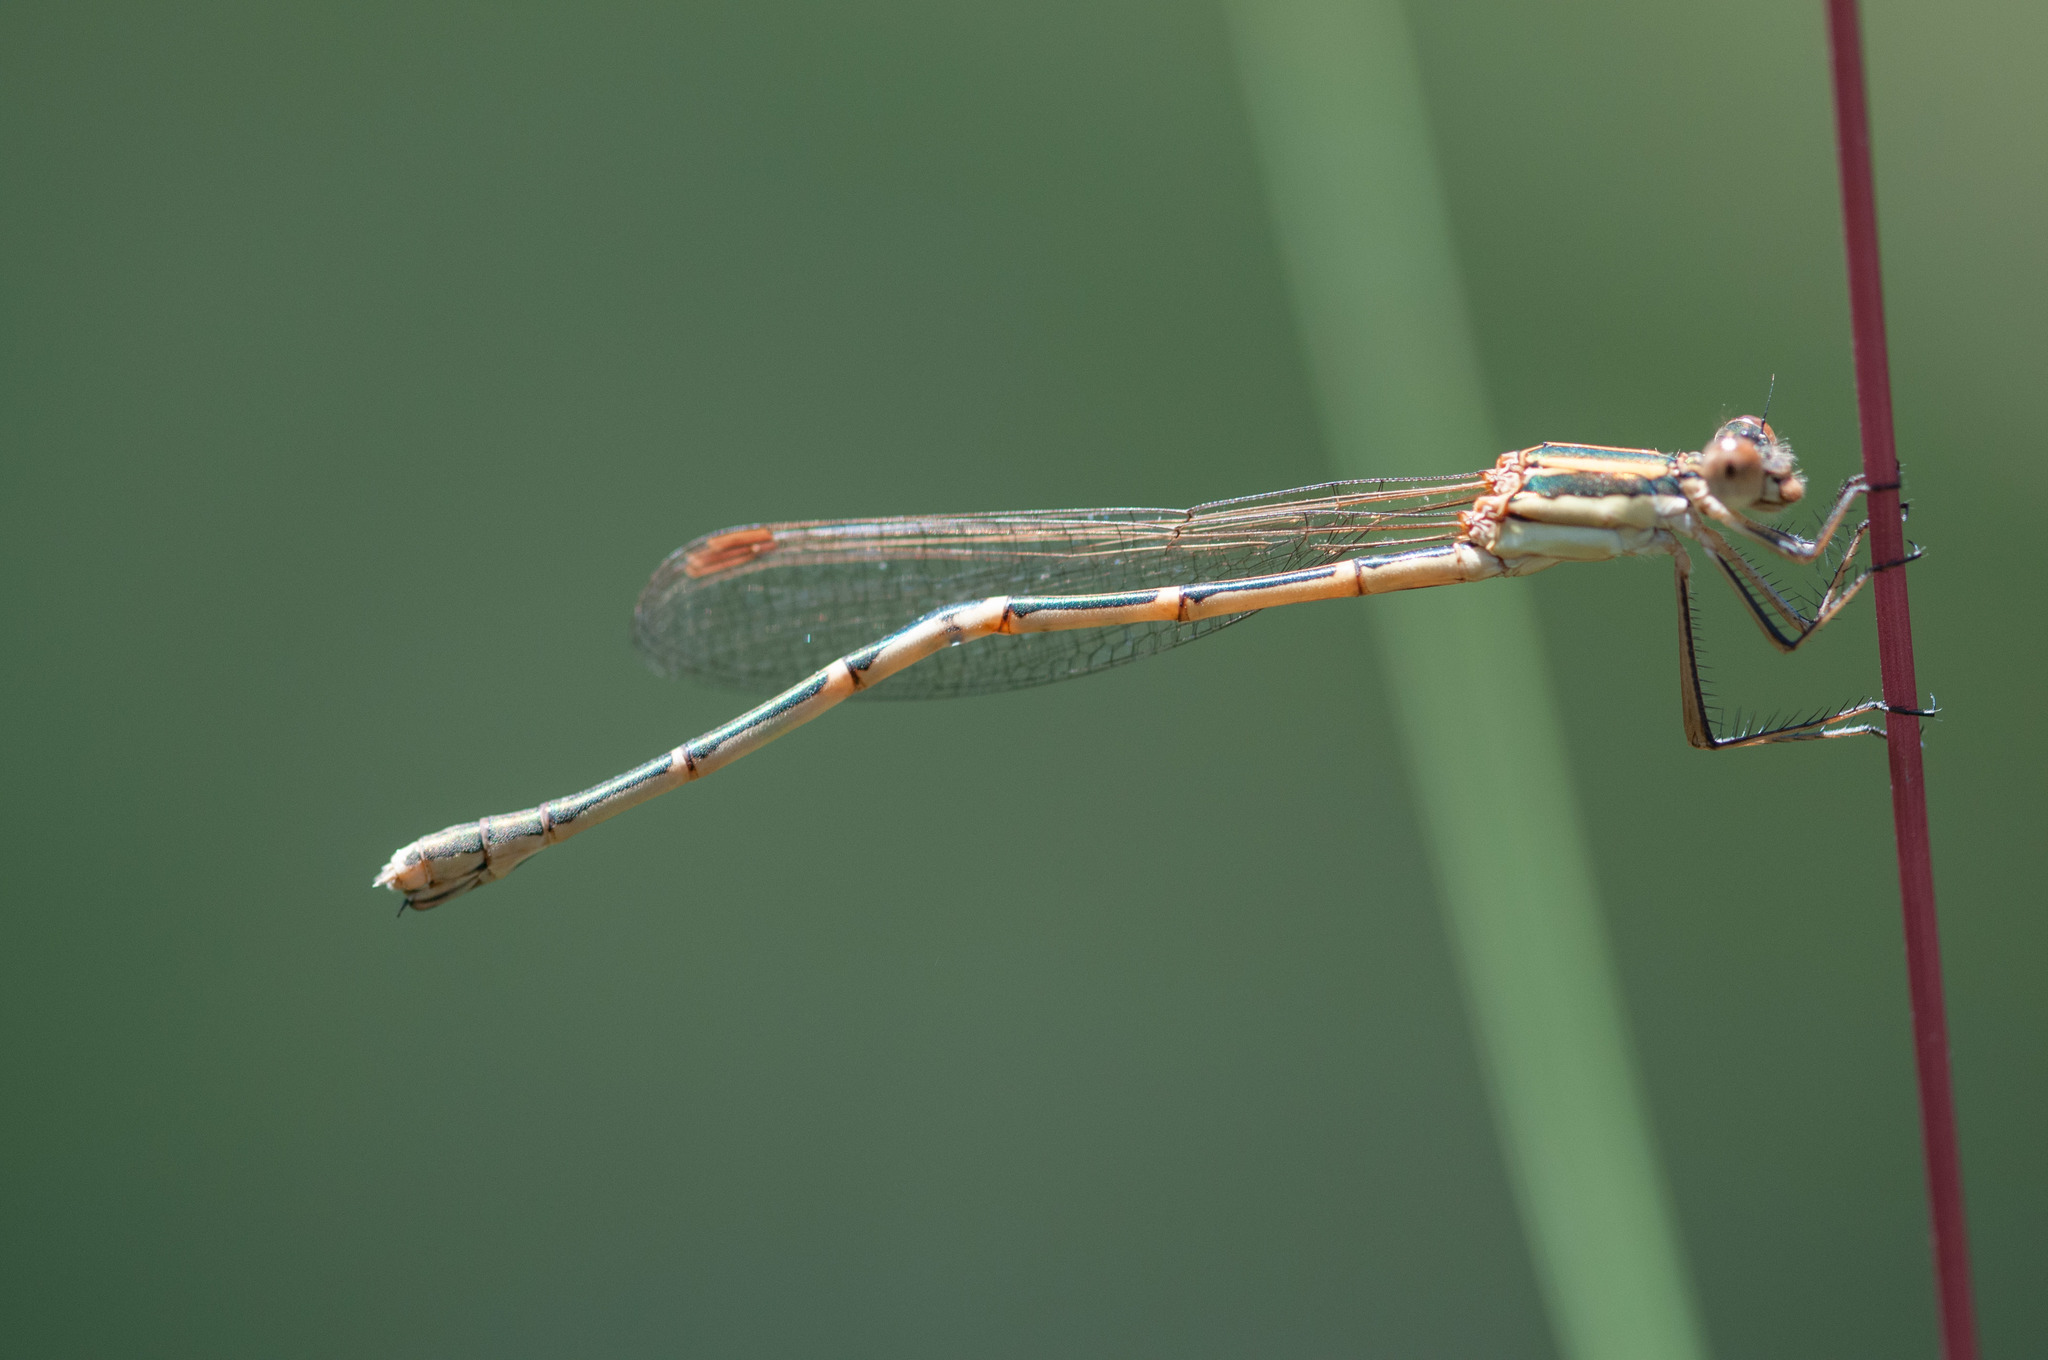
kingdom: Animalia
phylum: Arthropoda
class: Insecta
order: Odonata
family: Lestidae
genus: Austrolestes
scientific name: Austrolestes analis
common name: Slender ringtail
